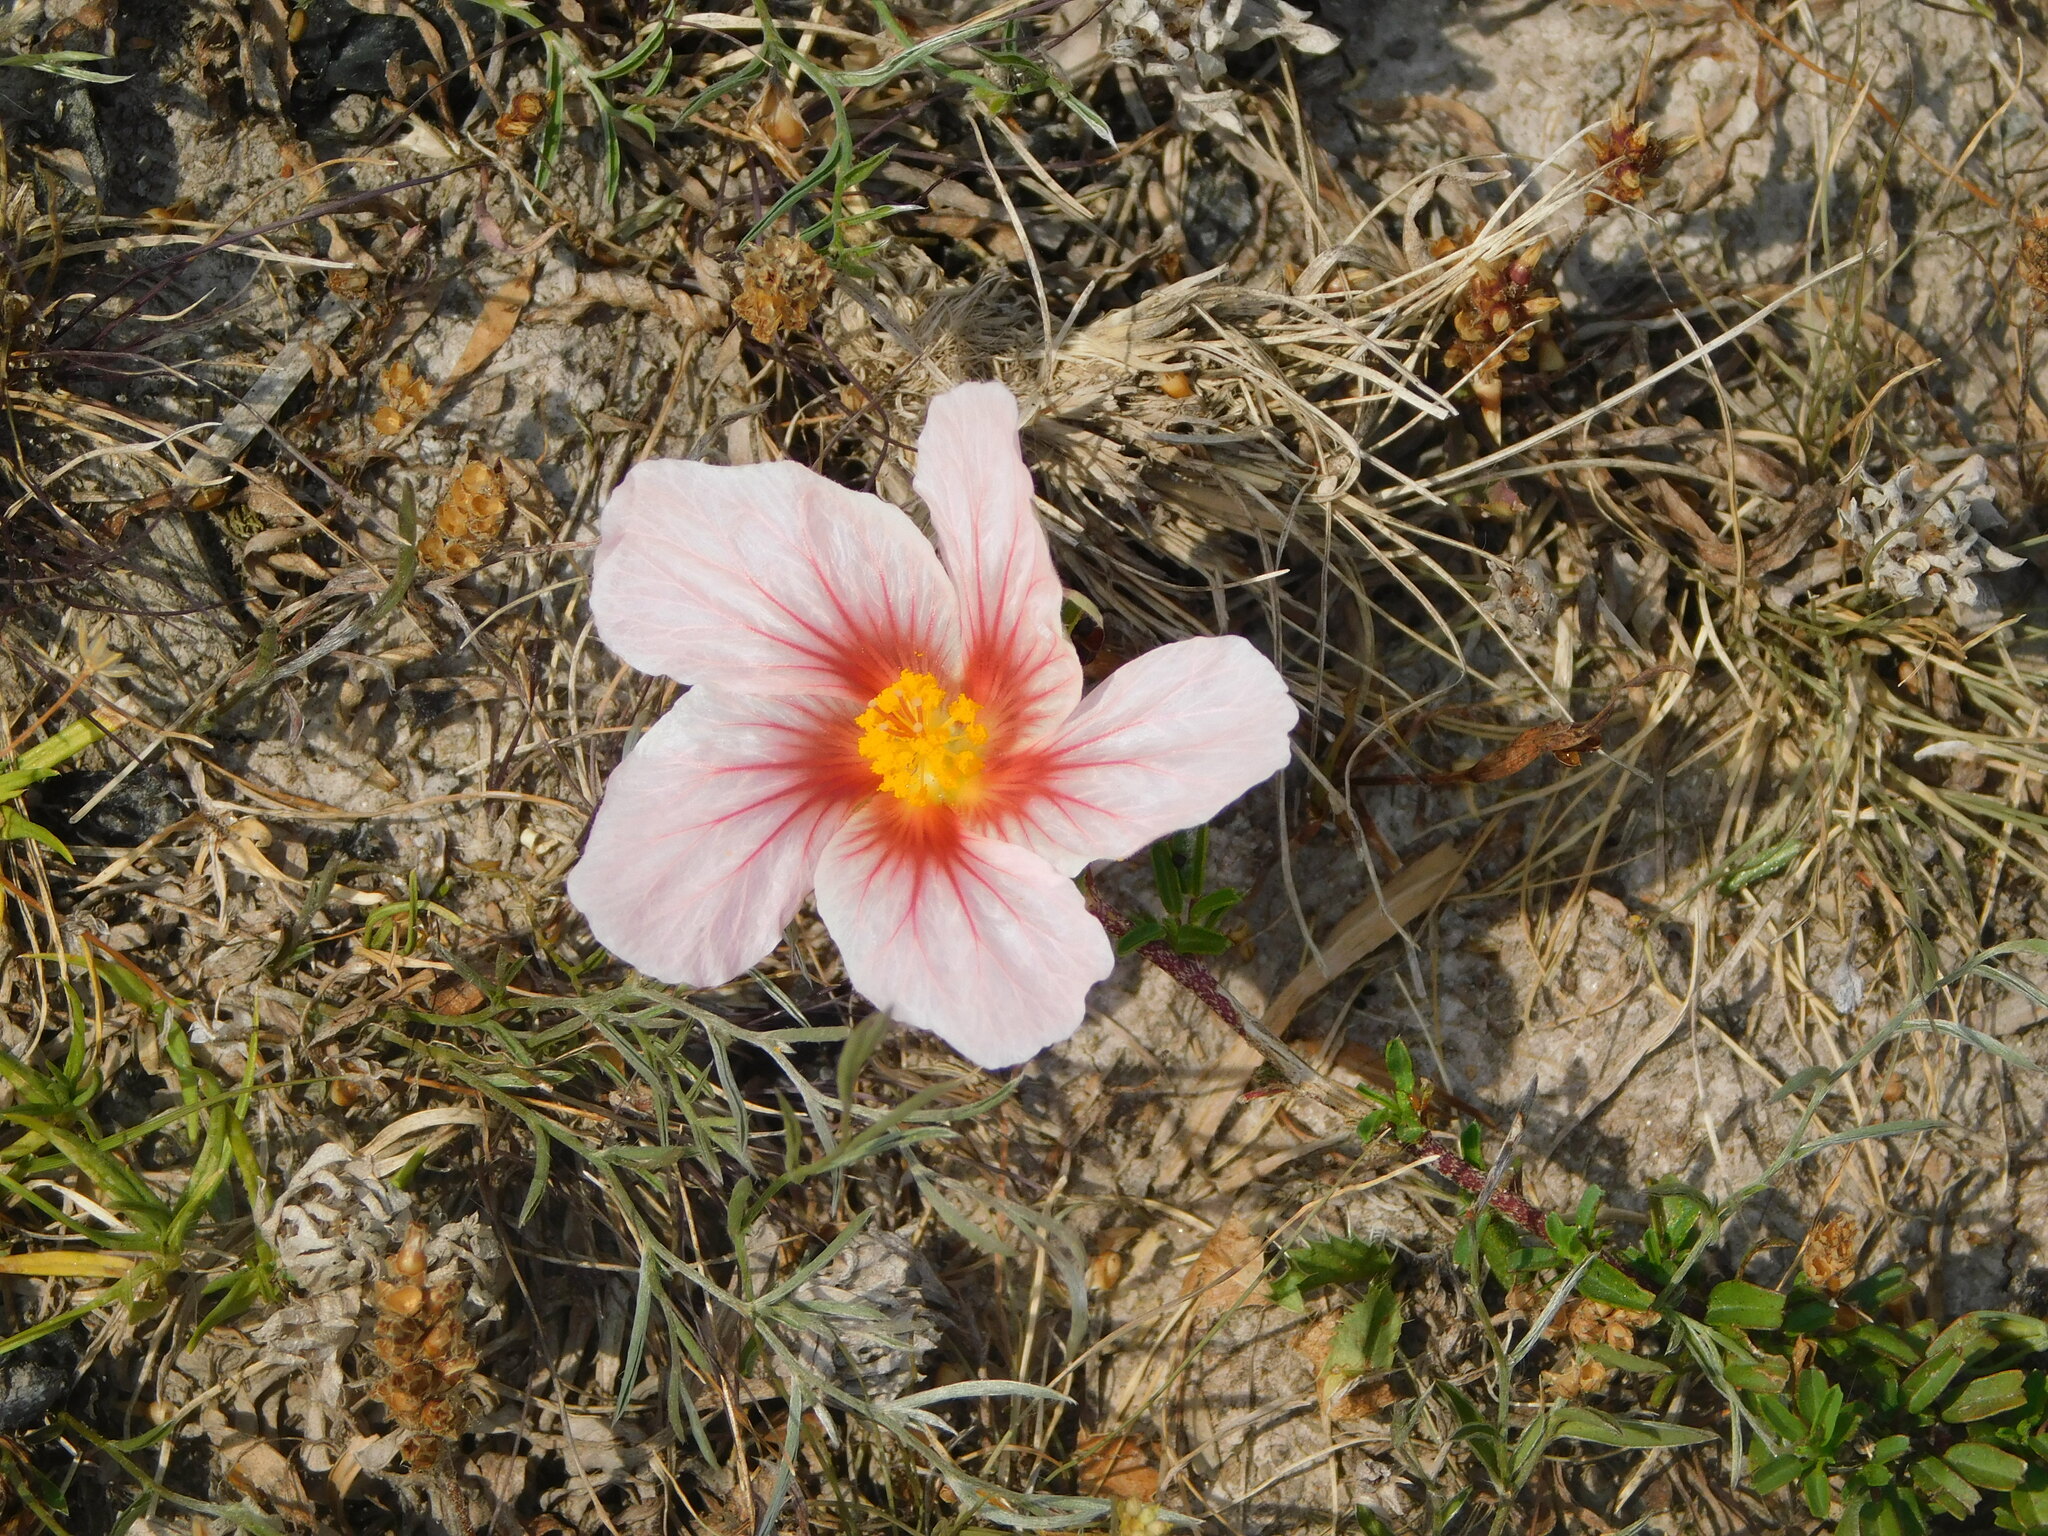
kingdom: Plantae
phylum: Tracheophyta
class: Magnoliopsida
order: Malvales
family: Malvaceae
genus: Sida
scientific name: Sida ciliaris
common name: Bracted fanpetals
